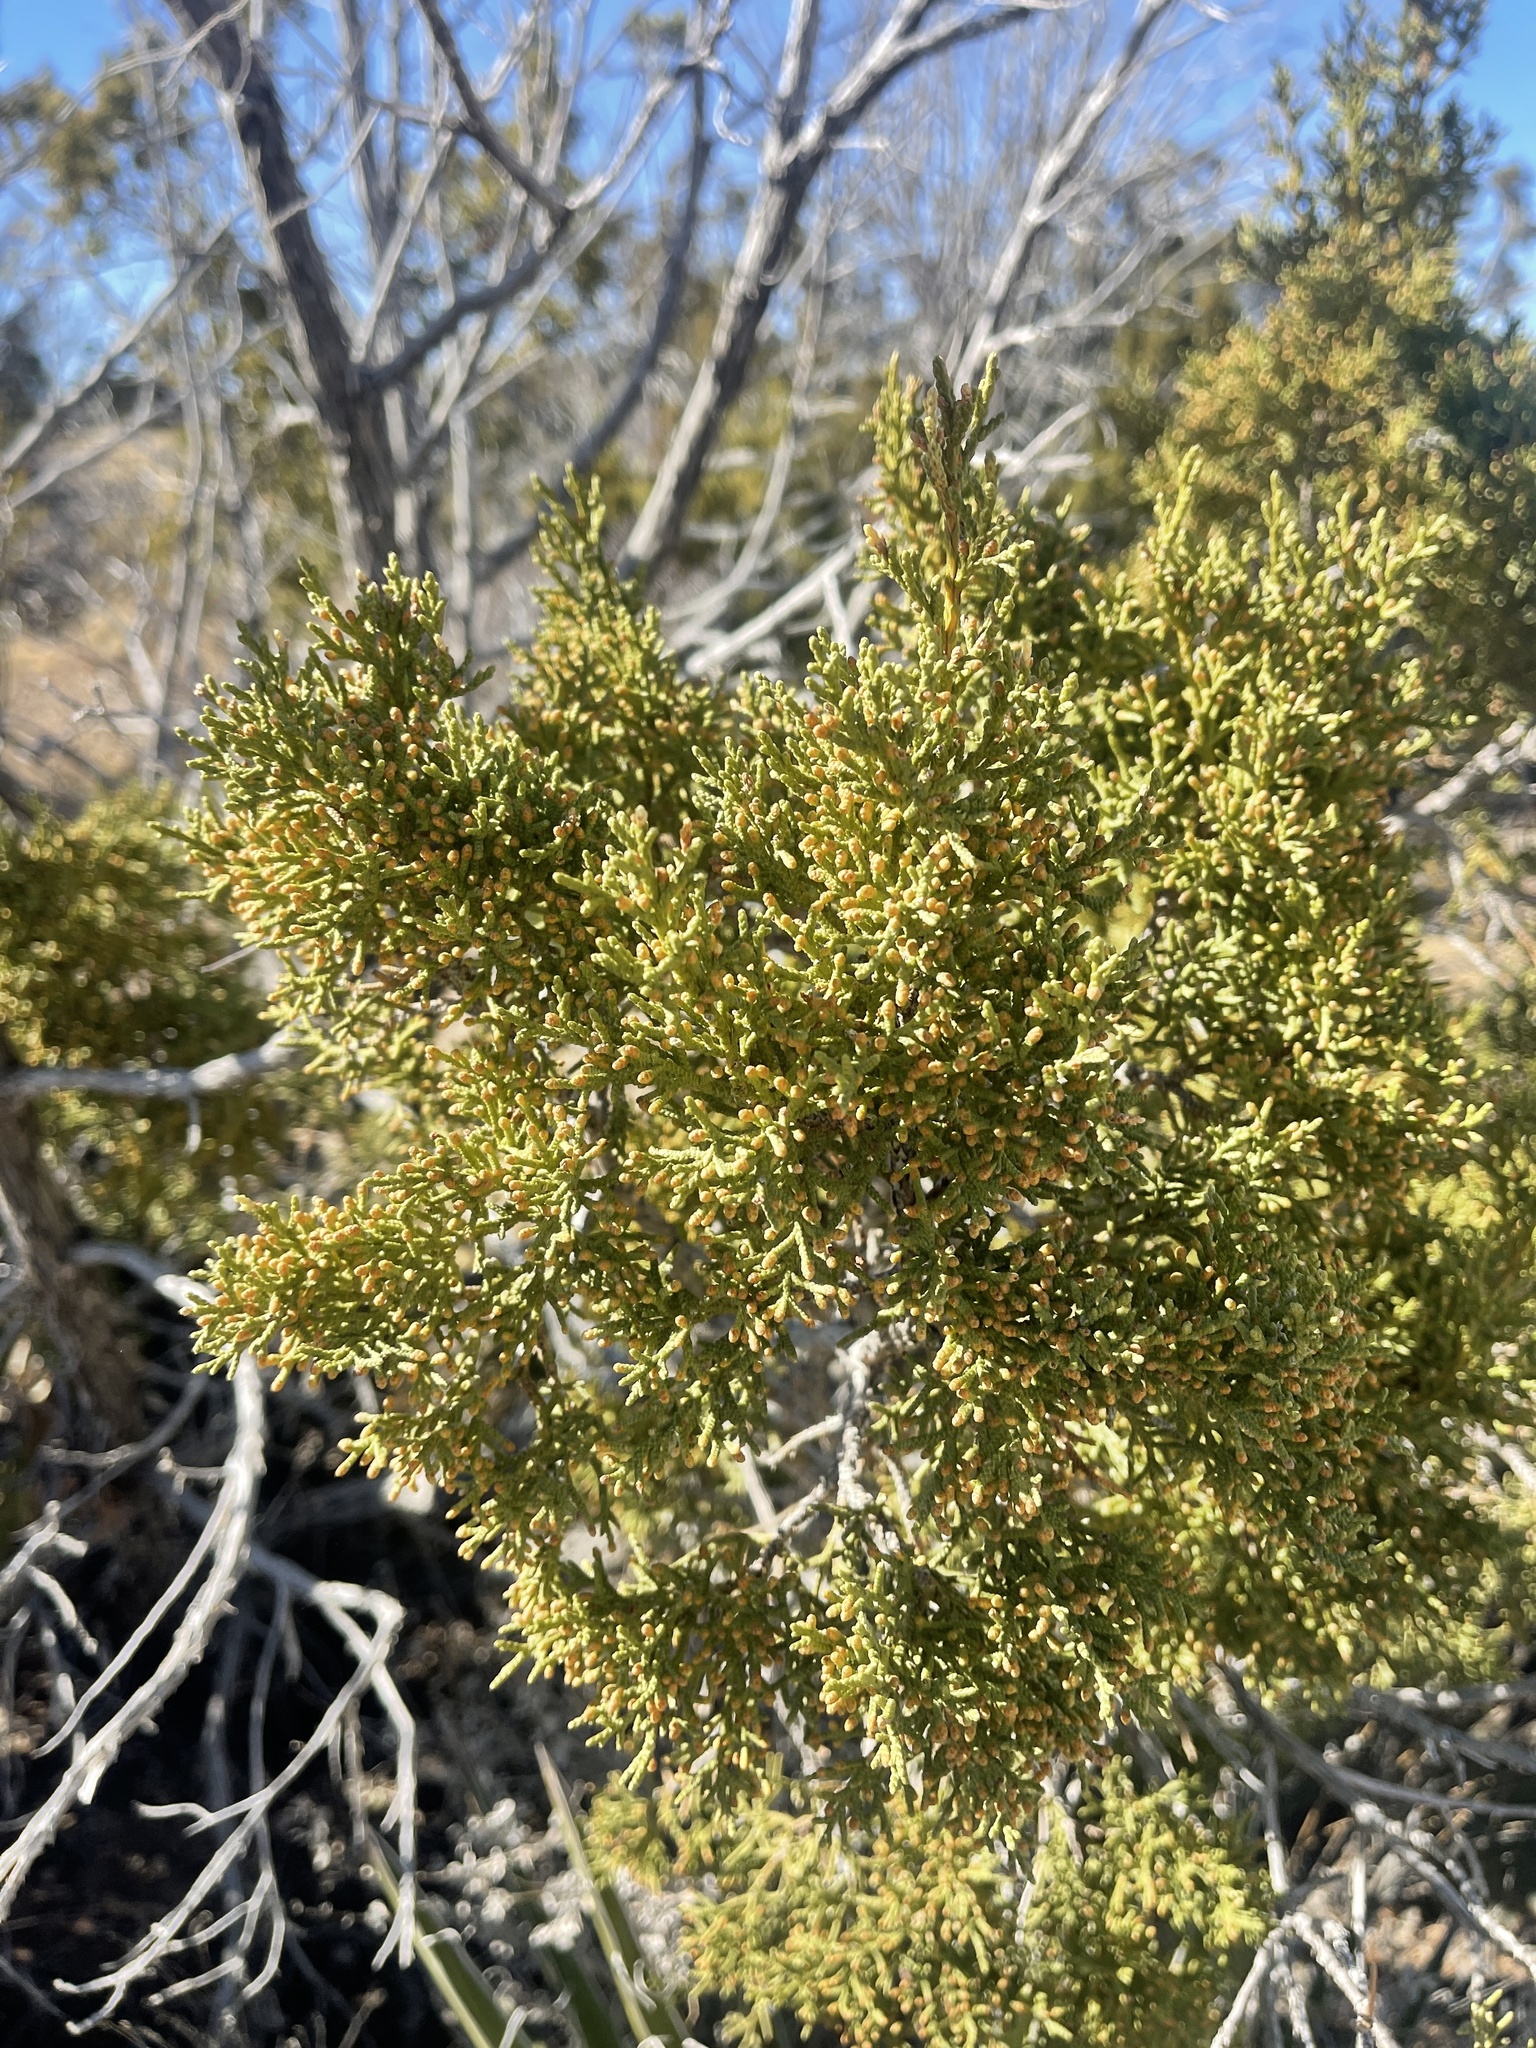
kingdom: Plantae
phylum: Tracheophyta
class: Pinopsida
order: Pinales
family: Cupressaceae
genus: Juniperus
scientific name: Juniperus monosperma
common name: One-seed juniper
